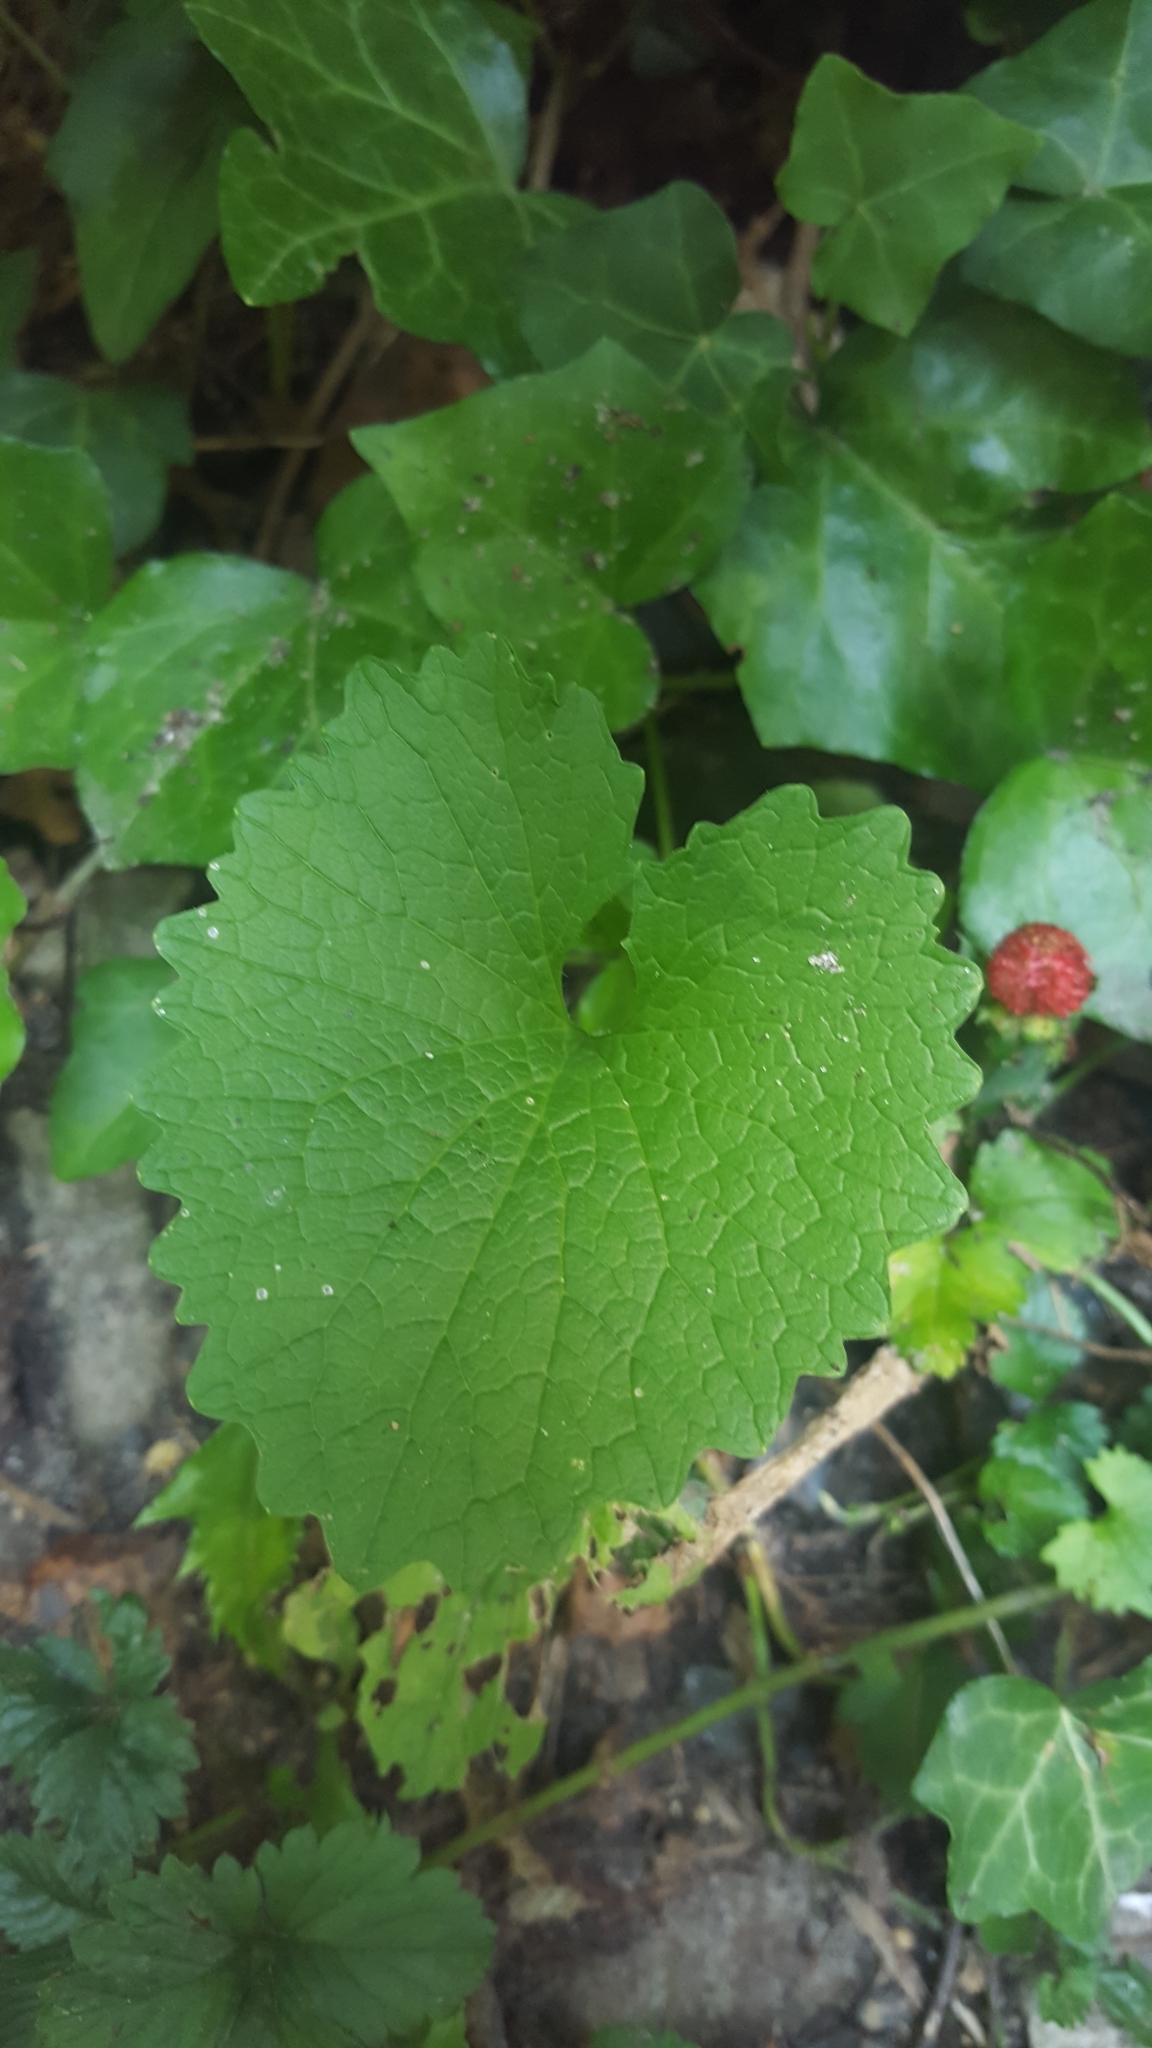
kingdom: Plantae
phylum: Tracheophyta
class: Magnoliopsida
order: Brassicales
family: Brassicaceae
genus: Alliaria
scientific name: Alliaria petiolata
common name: Garlic mustard
